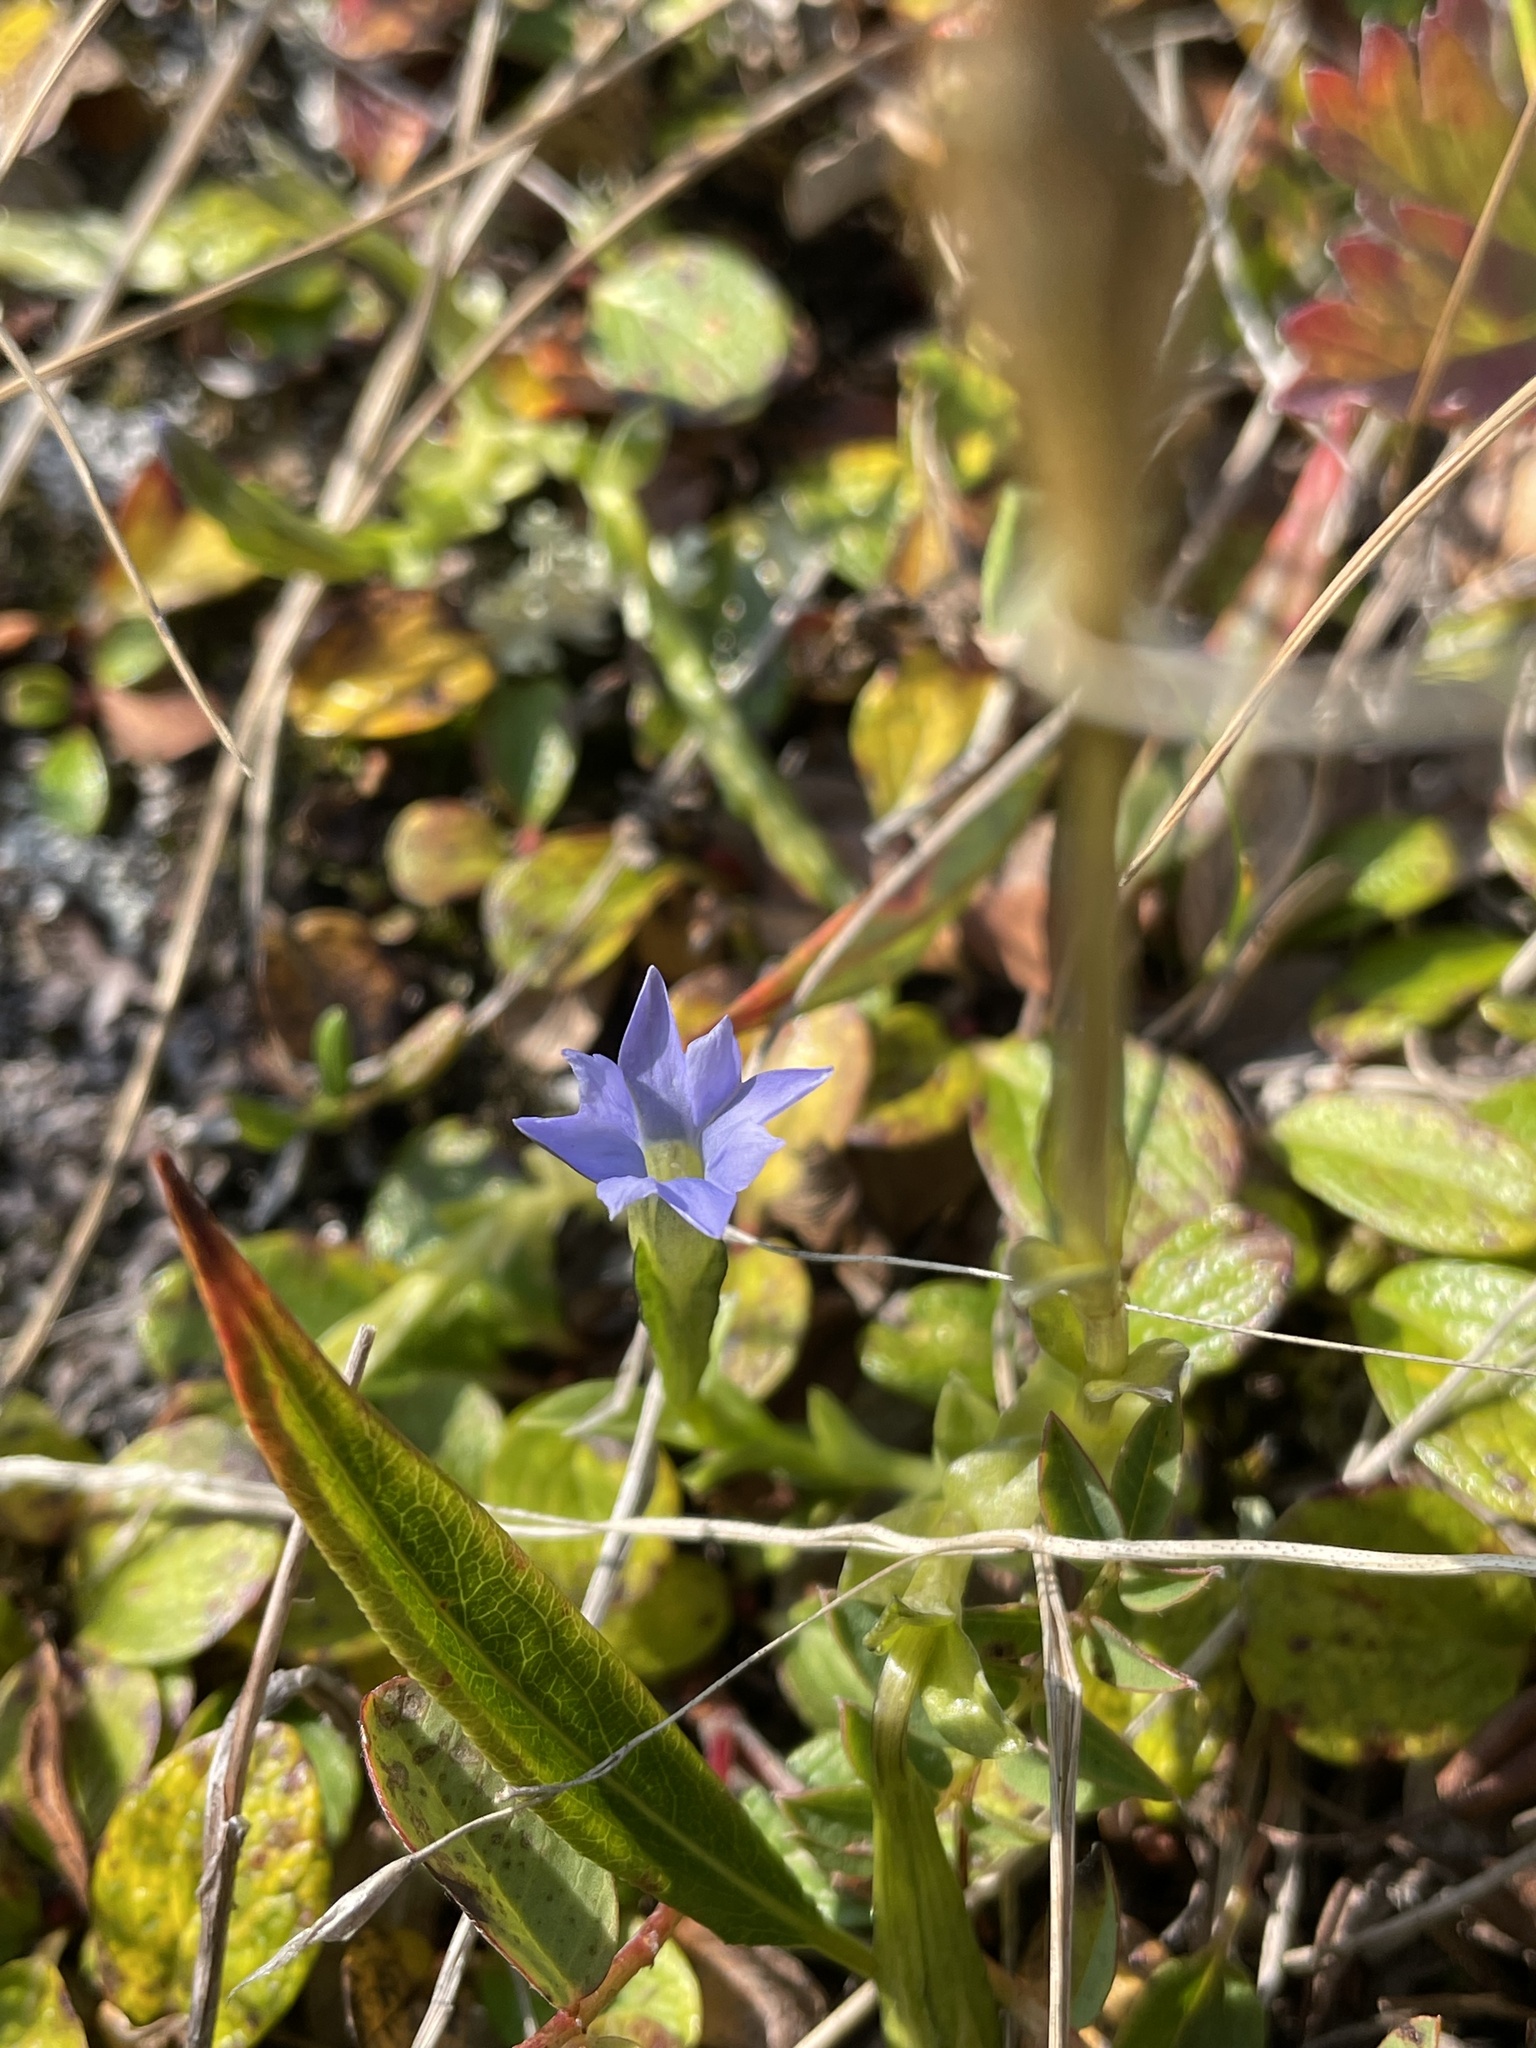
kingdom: Plantae
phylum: Tracheophyta
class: Magnoliopsida
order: Gentianales
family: Gentianaceae
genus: Gentiana
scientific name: Gentiana prostrata
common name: Moss gentian
